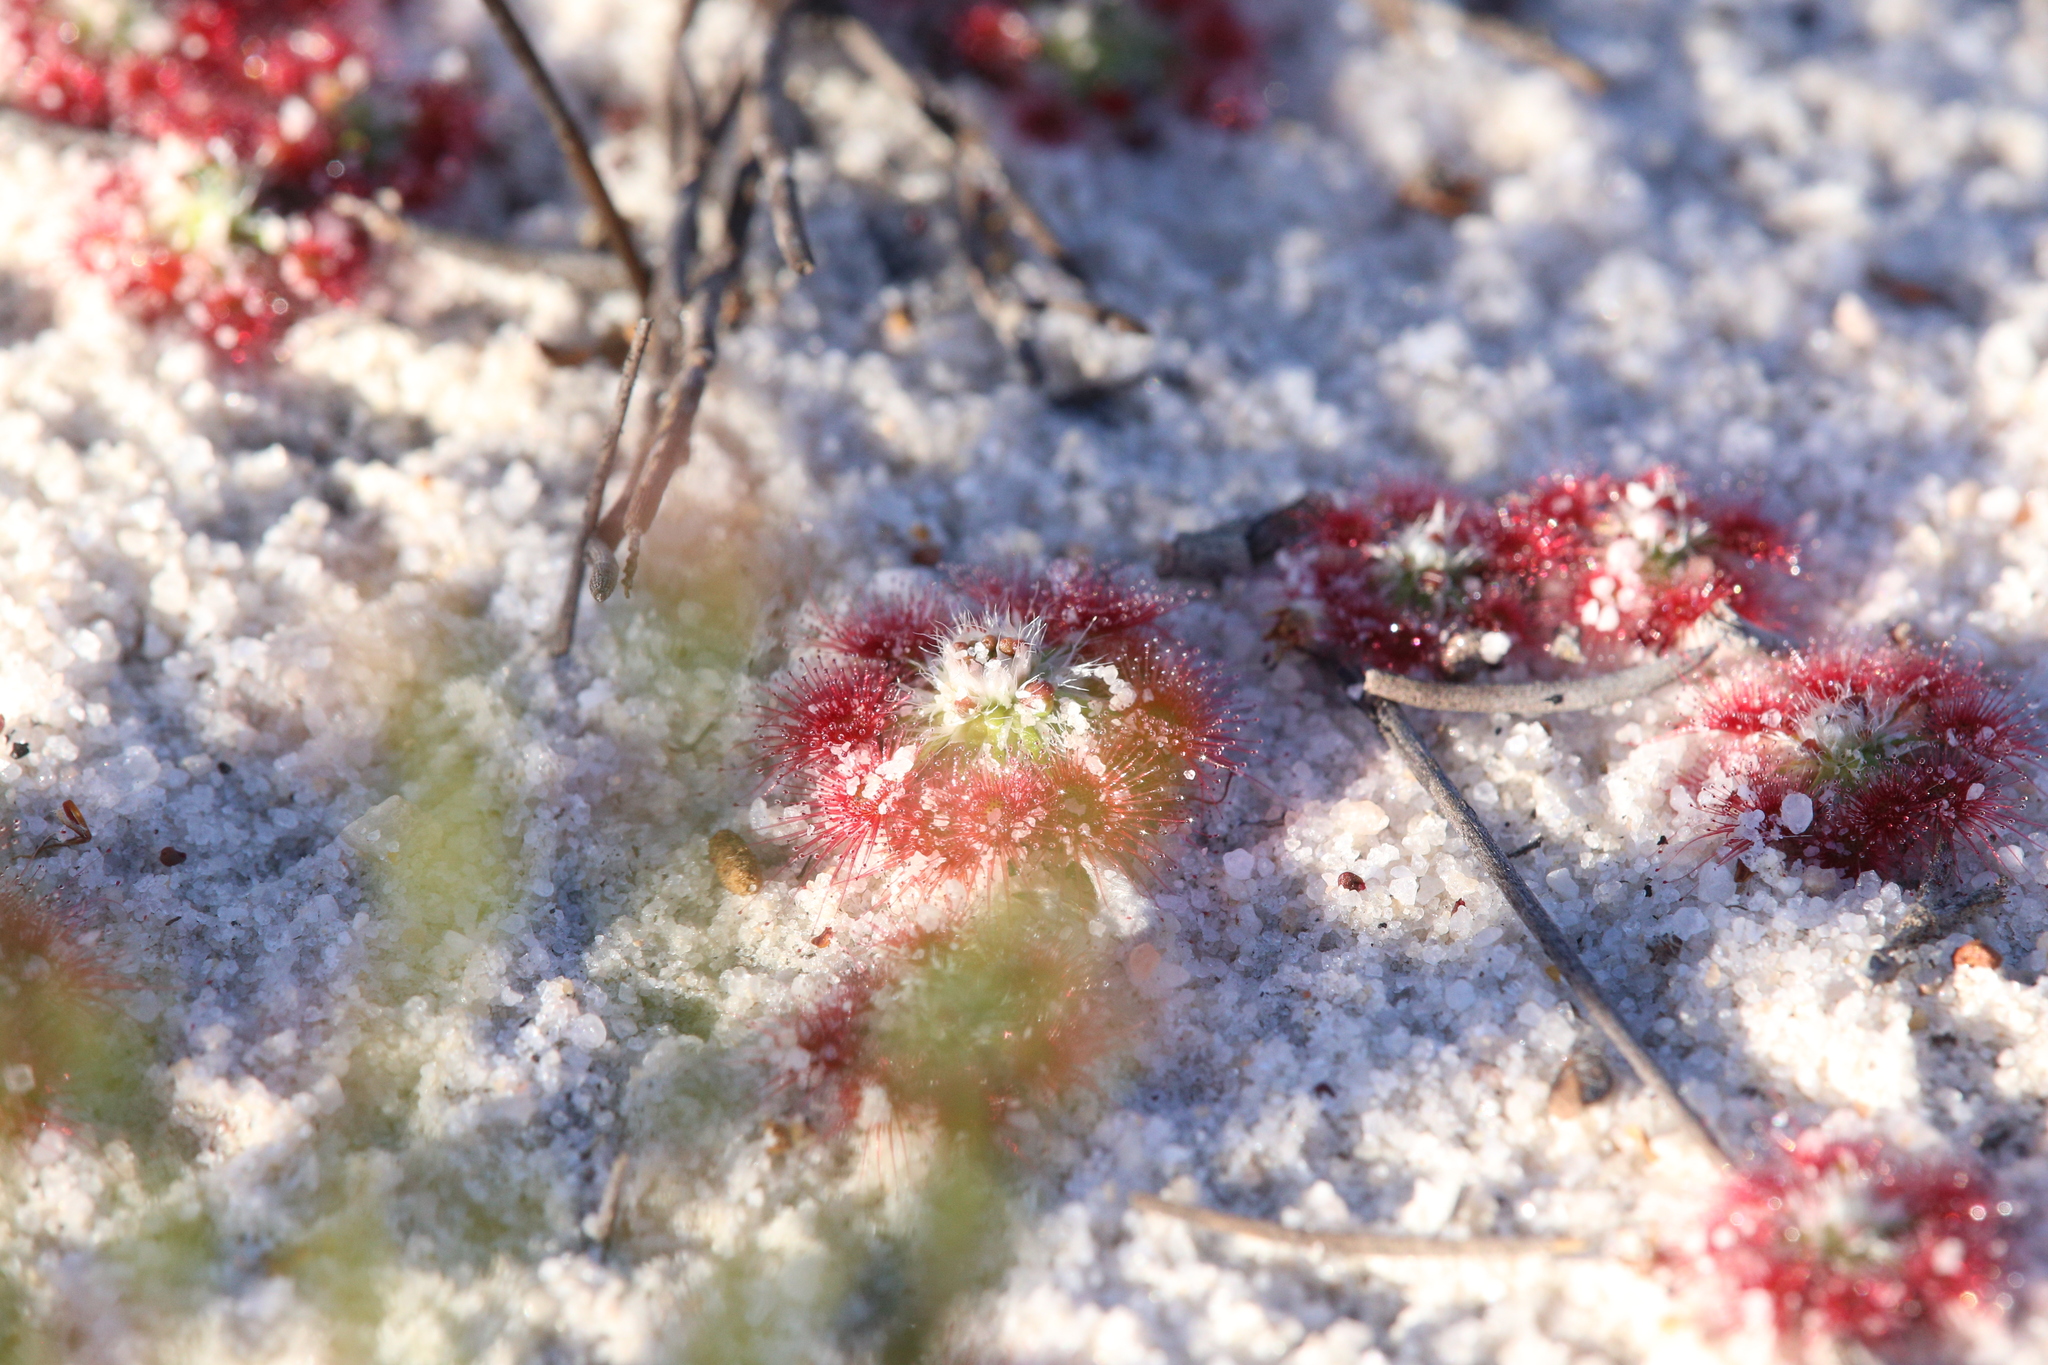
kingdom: Plantae
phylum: Tracheophyta
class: Magnoliopsida
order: Caryophyllales
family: Droseraceae
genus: Drosera
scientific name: Drosera eneabba
